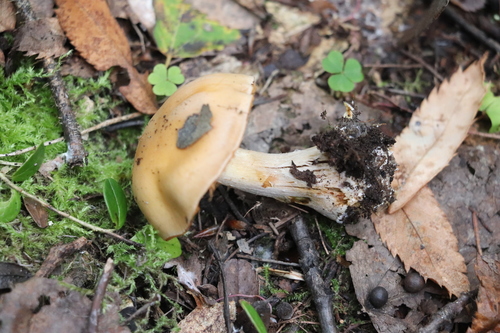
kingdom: Fungi
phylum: Basidiomycota
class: Agaricomycetes
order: Agaricales
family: Cortinariaceae
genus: Thaxterogaster
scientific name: Thaxterogaster talus
